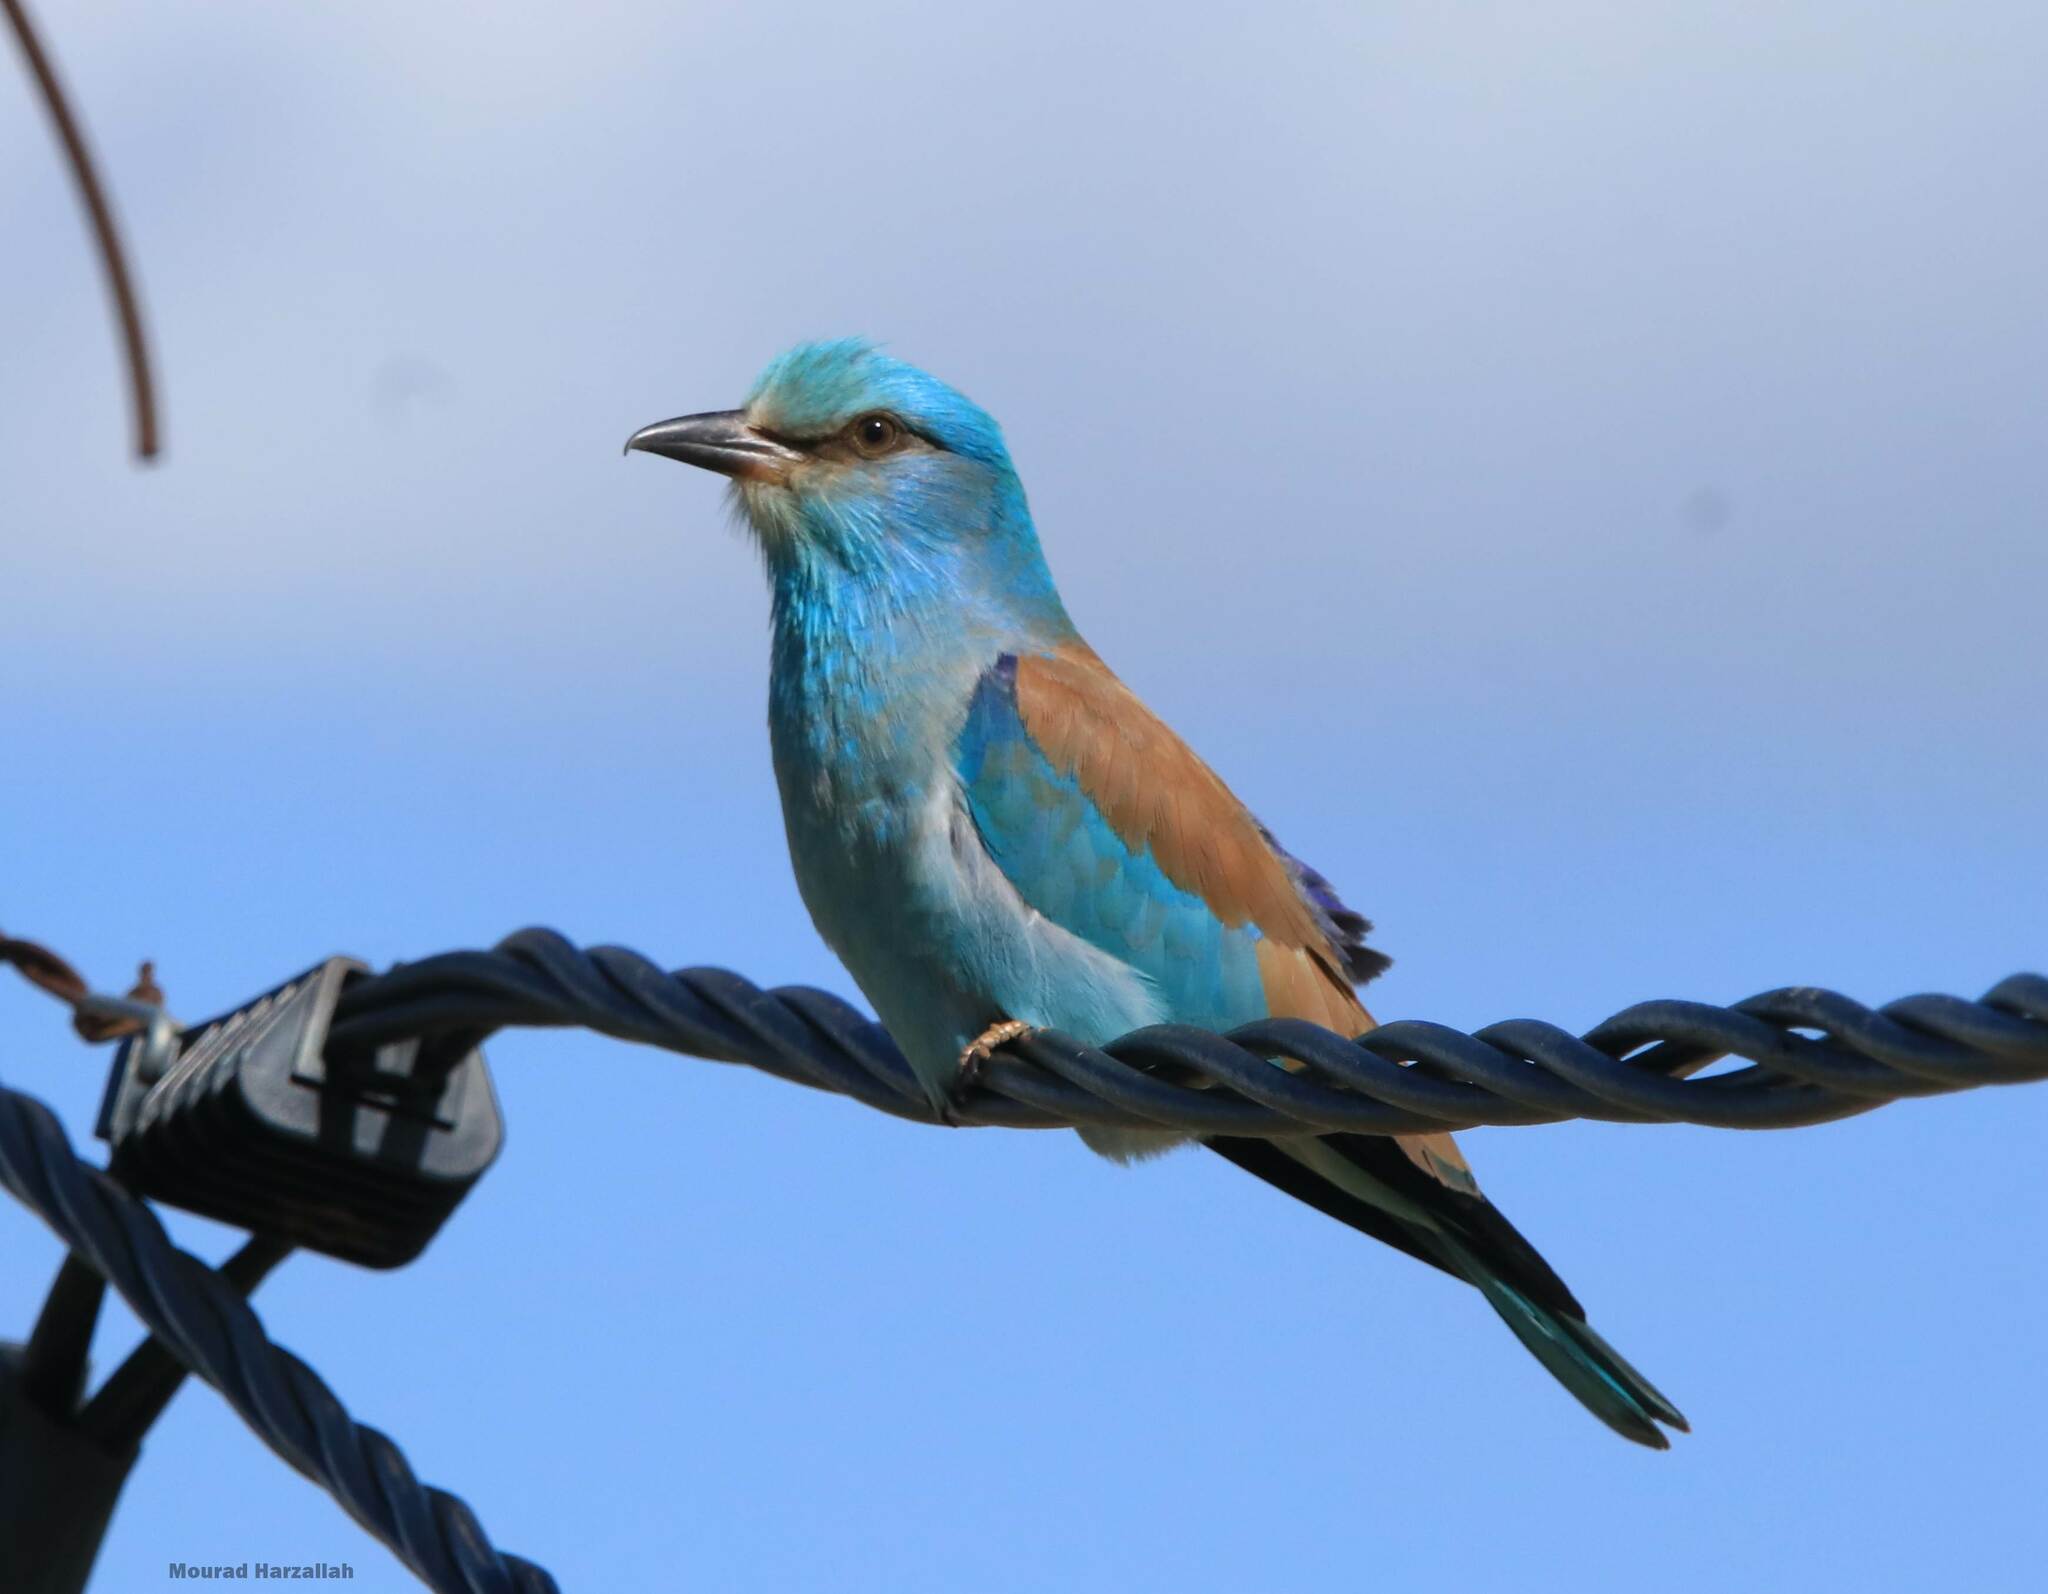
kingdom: Animalia
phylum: Chordata
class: Aves
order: Coraciiformes
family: Coraciidae
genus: Coracias
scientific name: Coracias garrulus
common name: European roller
